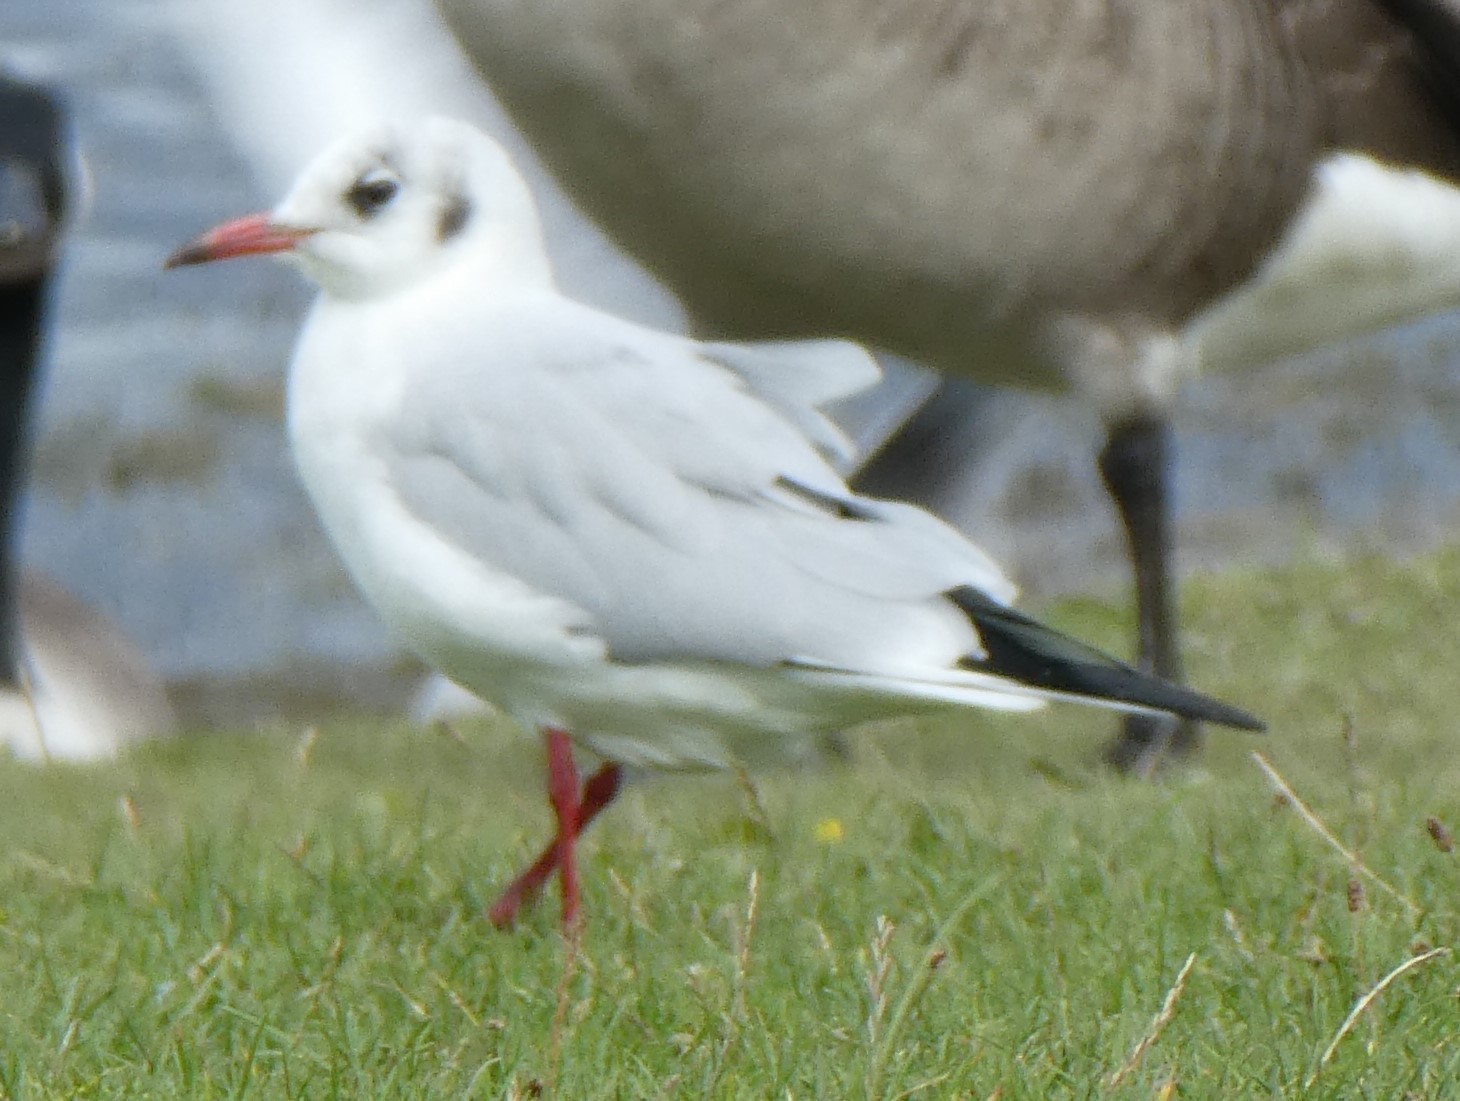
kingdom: Animalia
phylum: Chordata
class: Aves
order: Charadriiformes
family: Laridae
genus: Chroicocephalus
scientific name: Chroicocephalus ridibundus
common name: Black-headed gull
